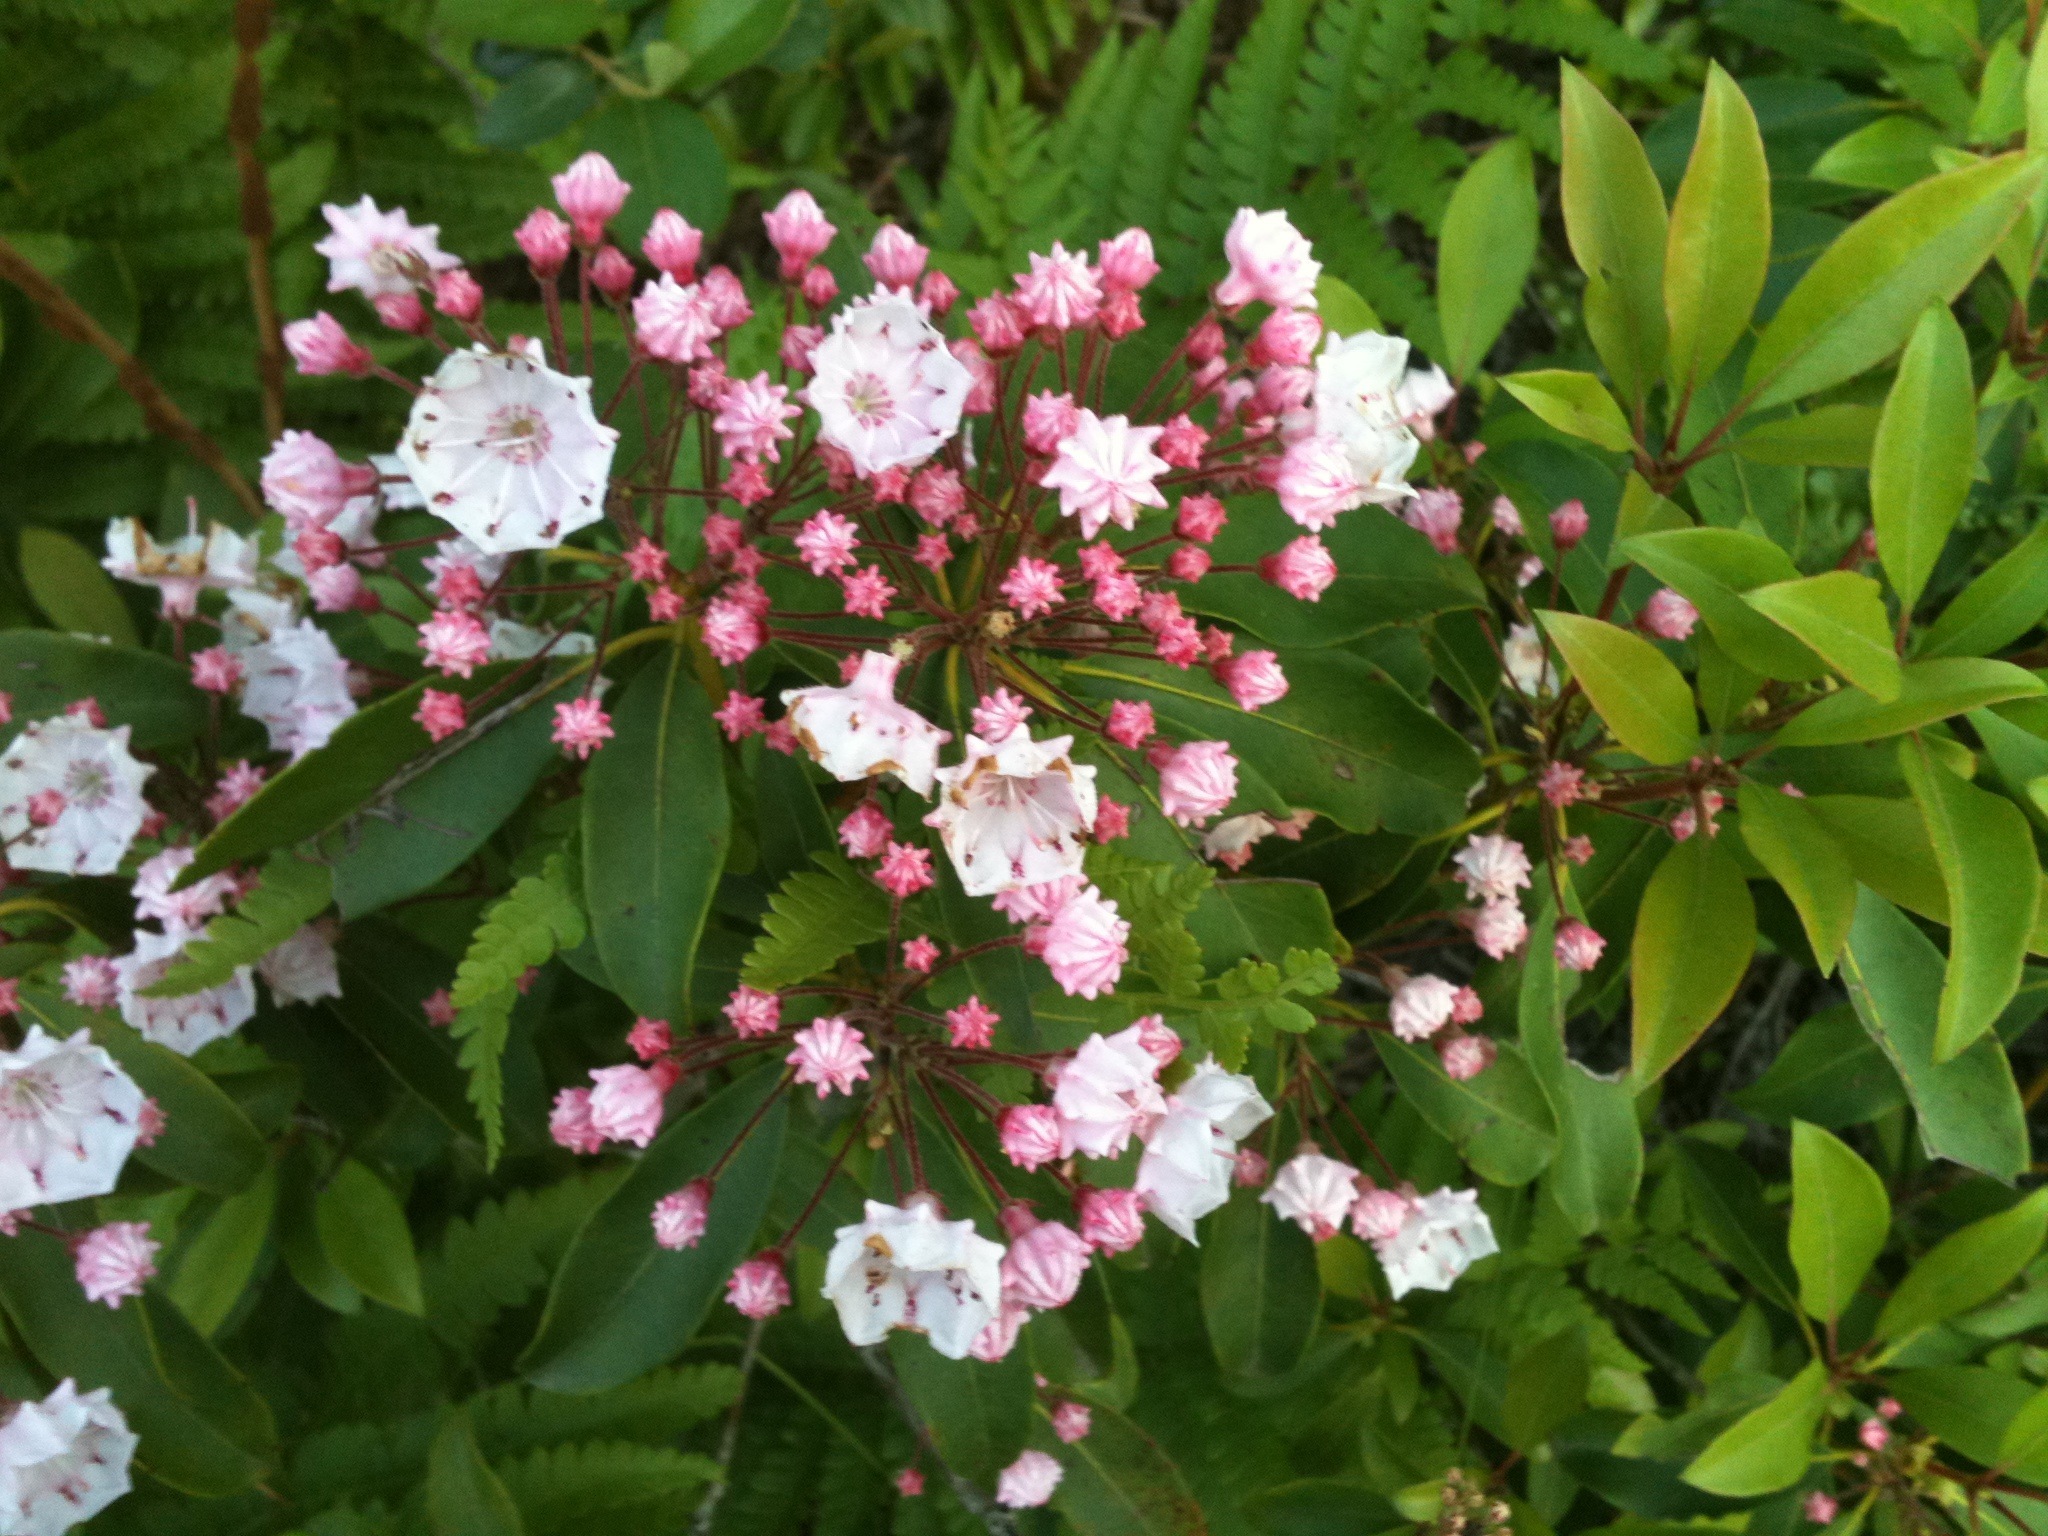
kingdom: Plantae
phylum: Tracheophyta
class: Magnoliopsida
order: Ericales
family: Ericaceae
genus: Kalmia
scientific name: Kalmia latifolia
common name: Mountain-laurel
